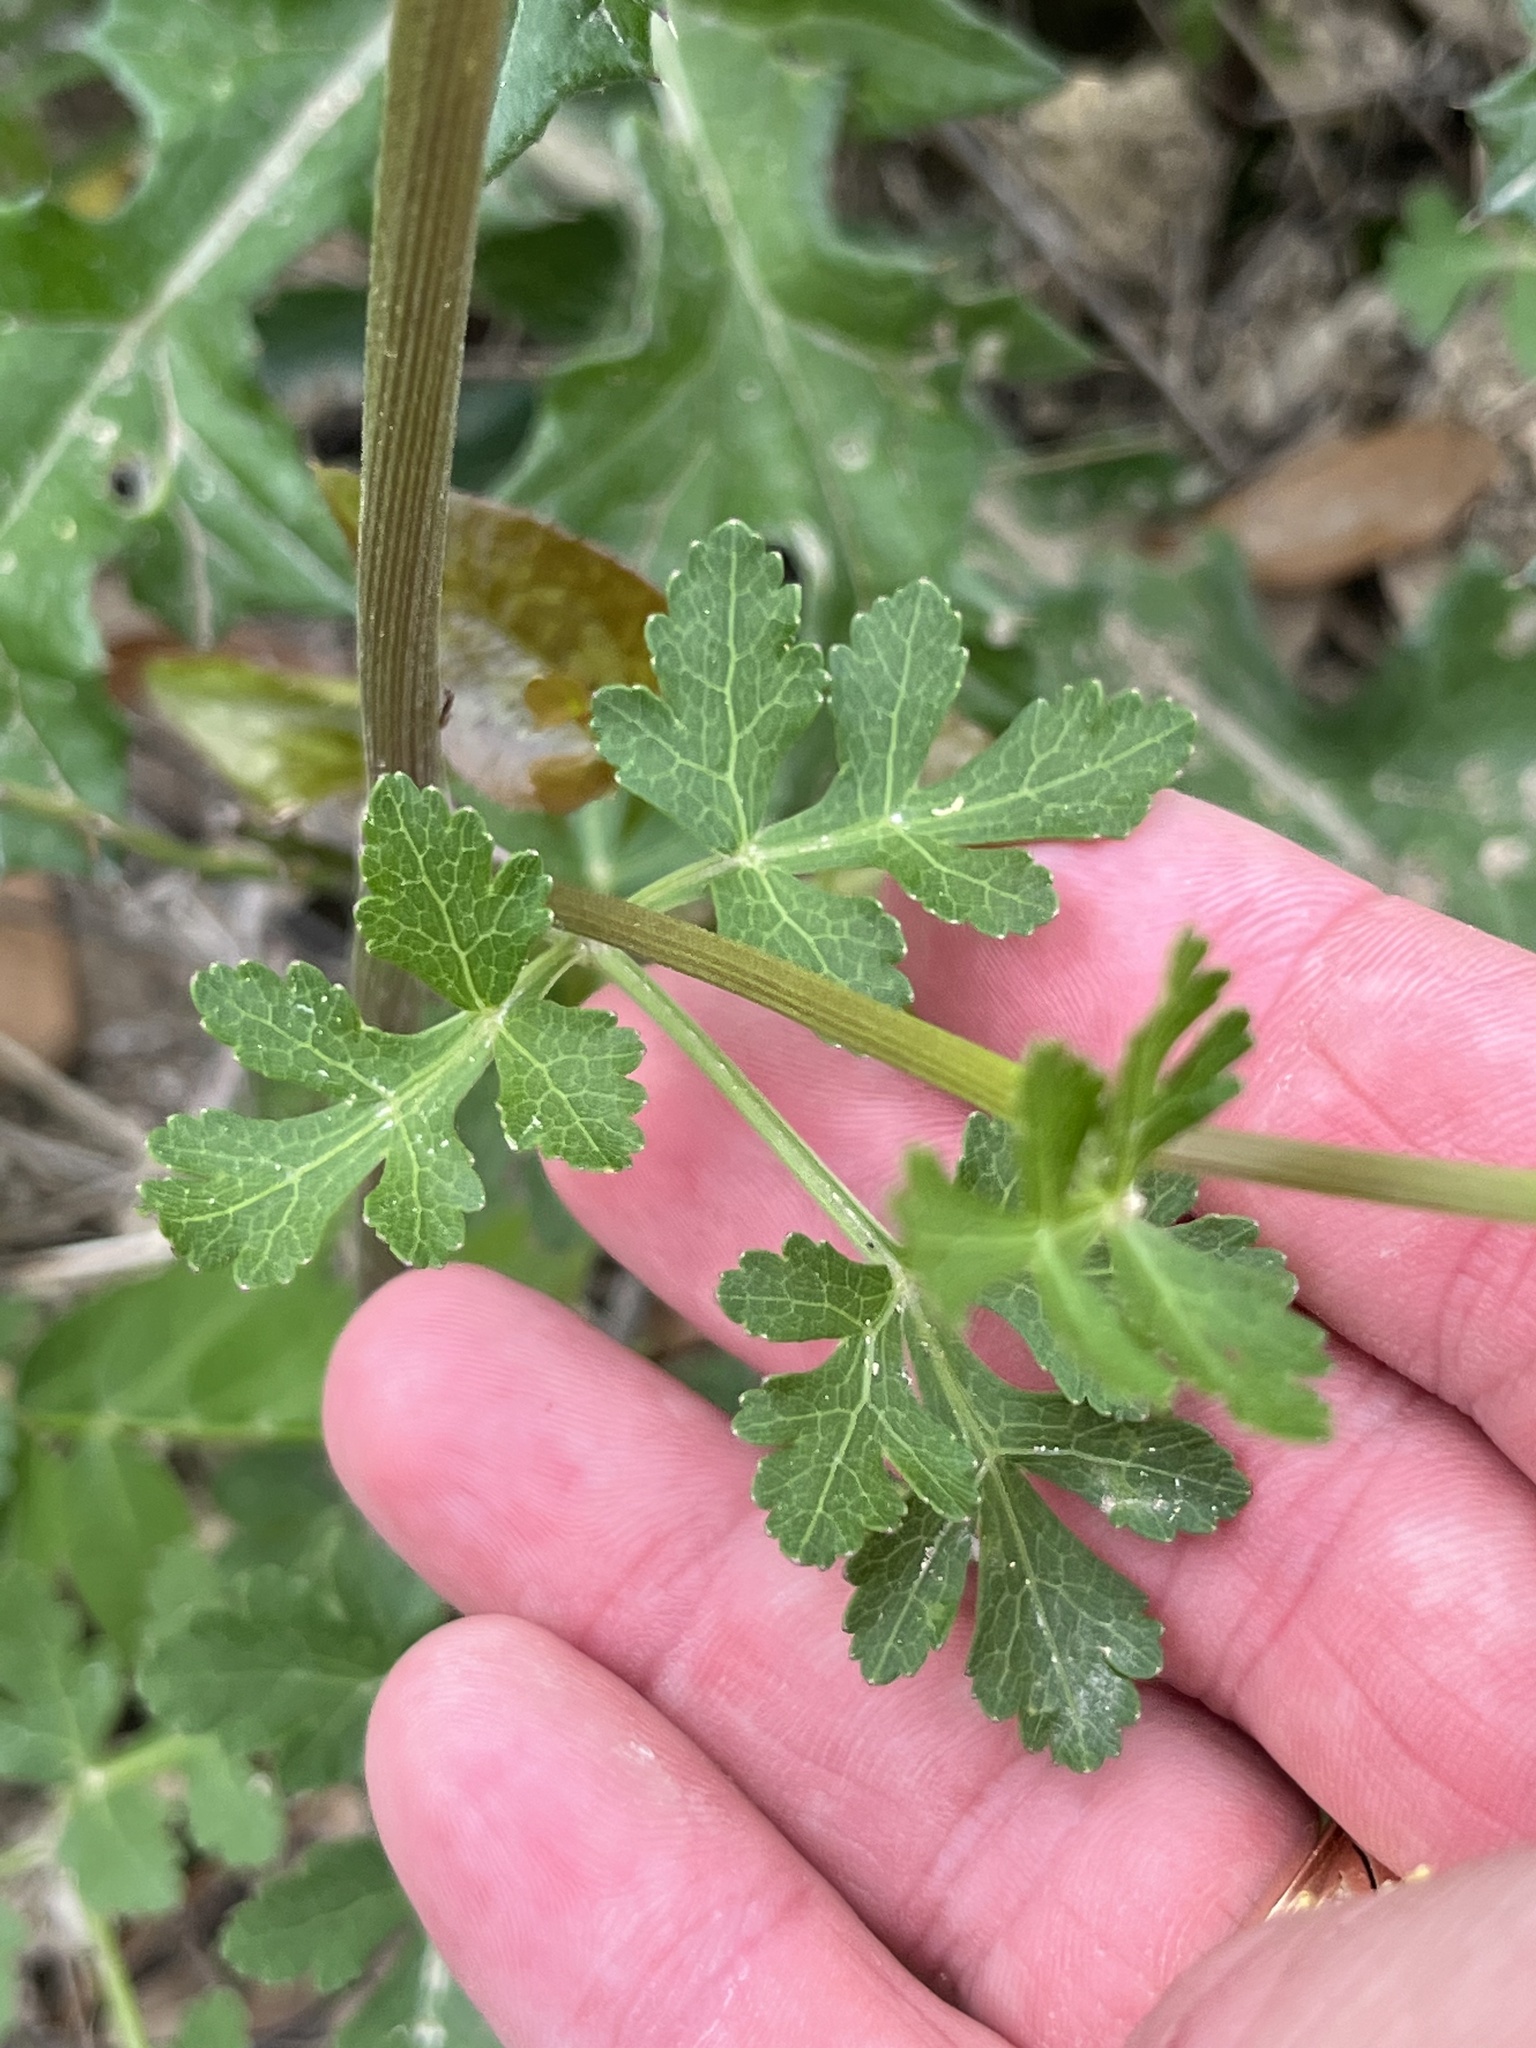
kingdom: Plantae
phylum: Tracheophyta
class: Magnoliopsida
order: Apiales
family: Apiaceae
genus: Polytaenia
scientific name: Polytaenia texana
